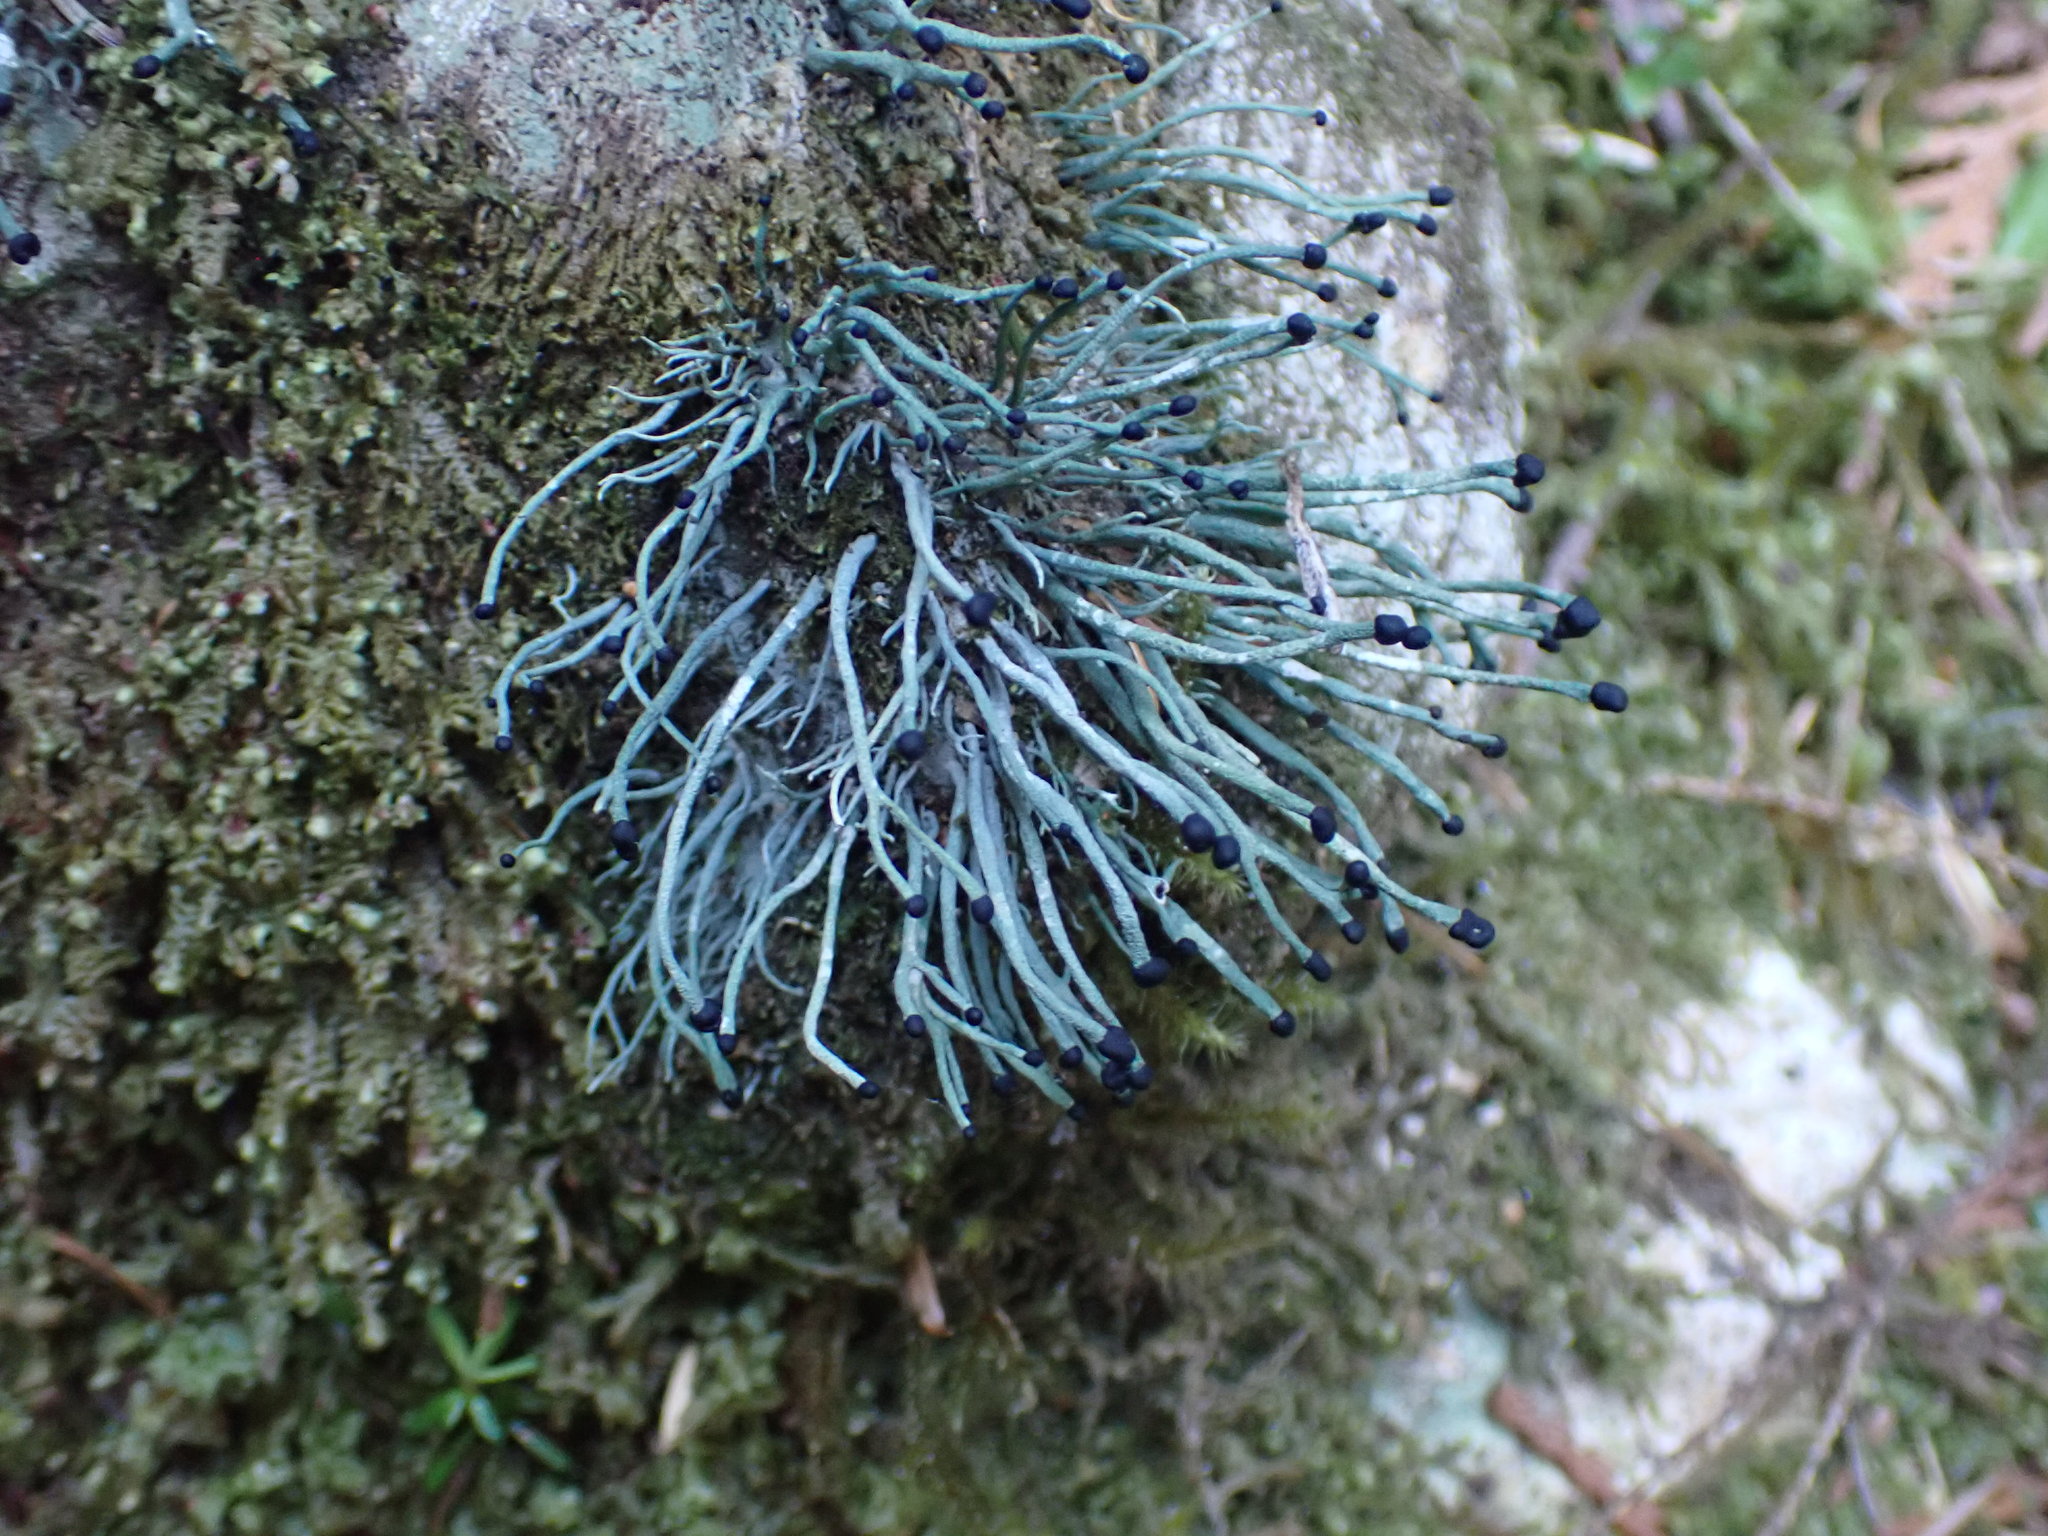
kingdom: Fungi
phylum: Ascomycota
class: Lecanoromycetes
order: Lecanorales
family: Cladoniaceae
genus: Pilophorus
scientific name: Pilophorus acicularis
